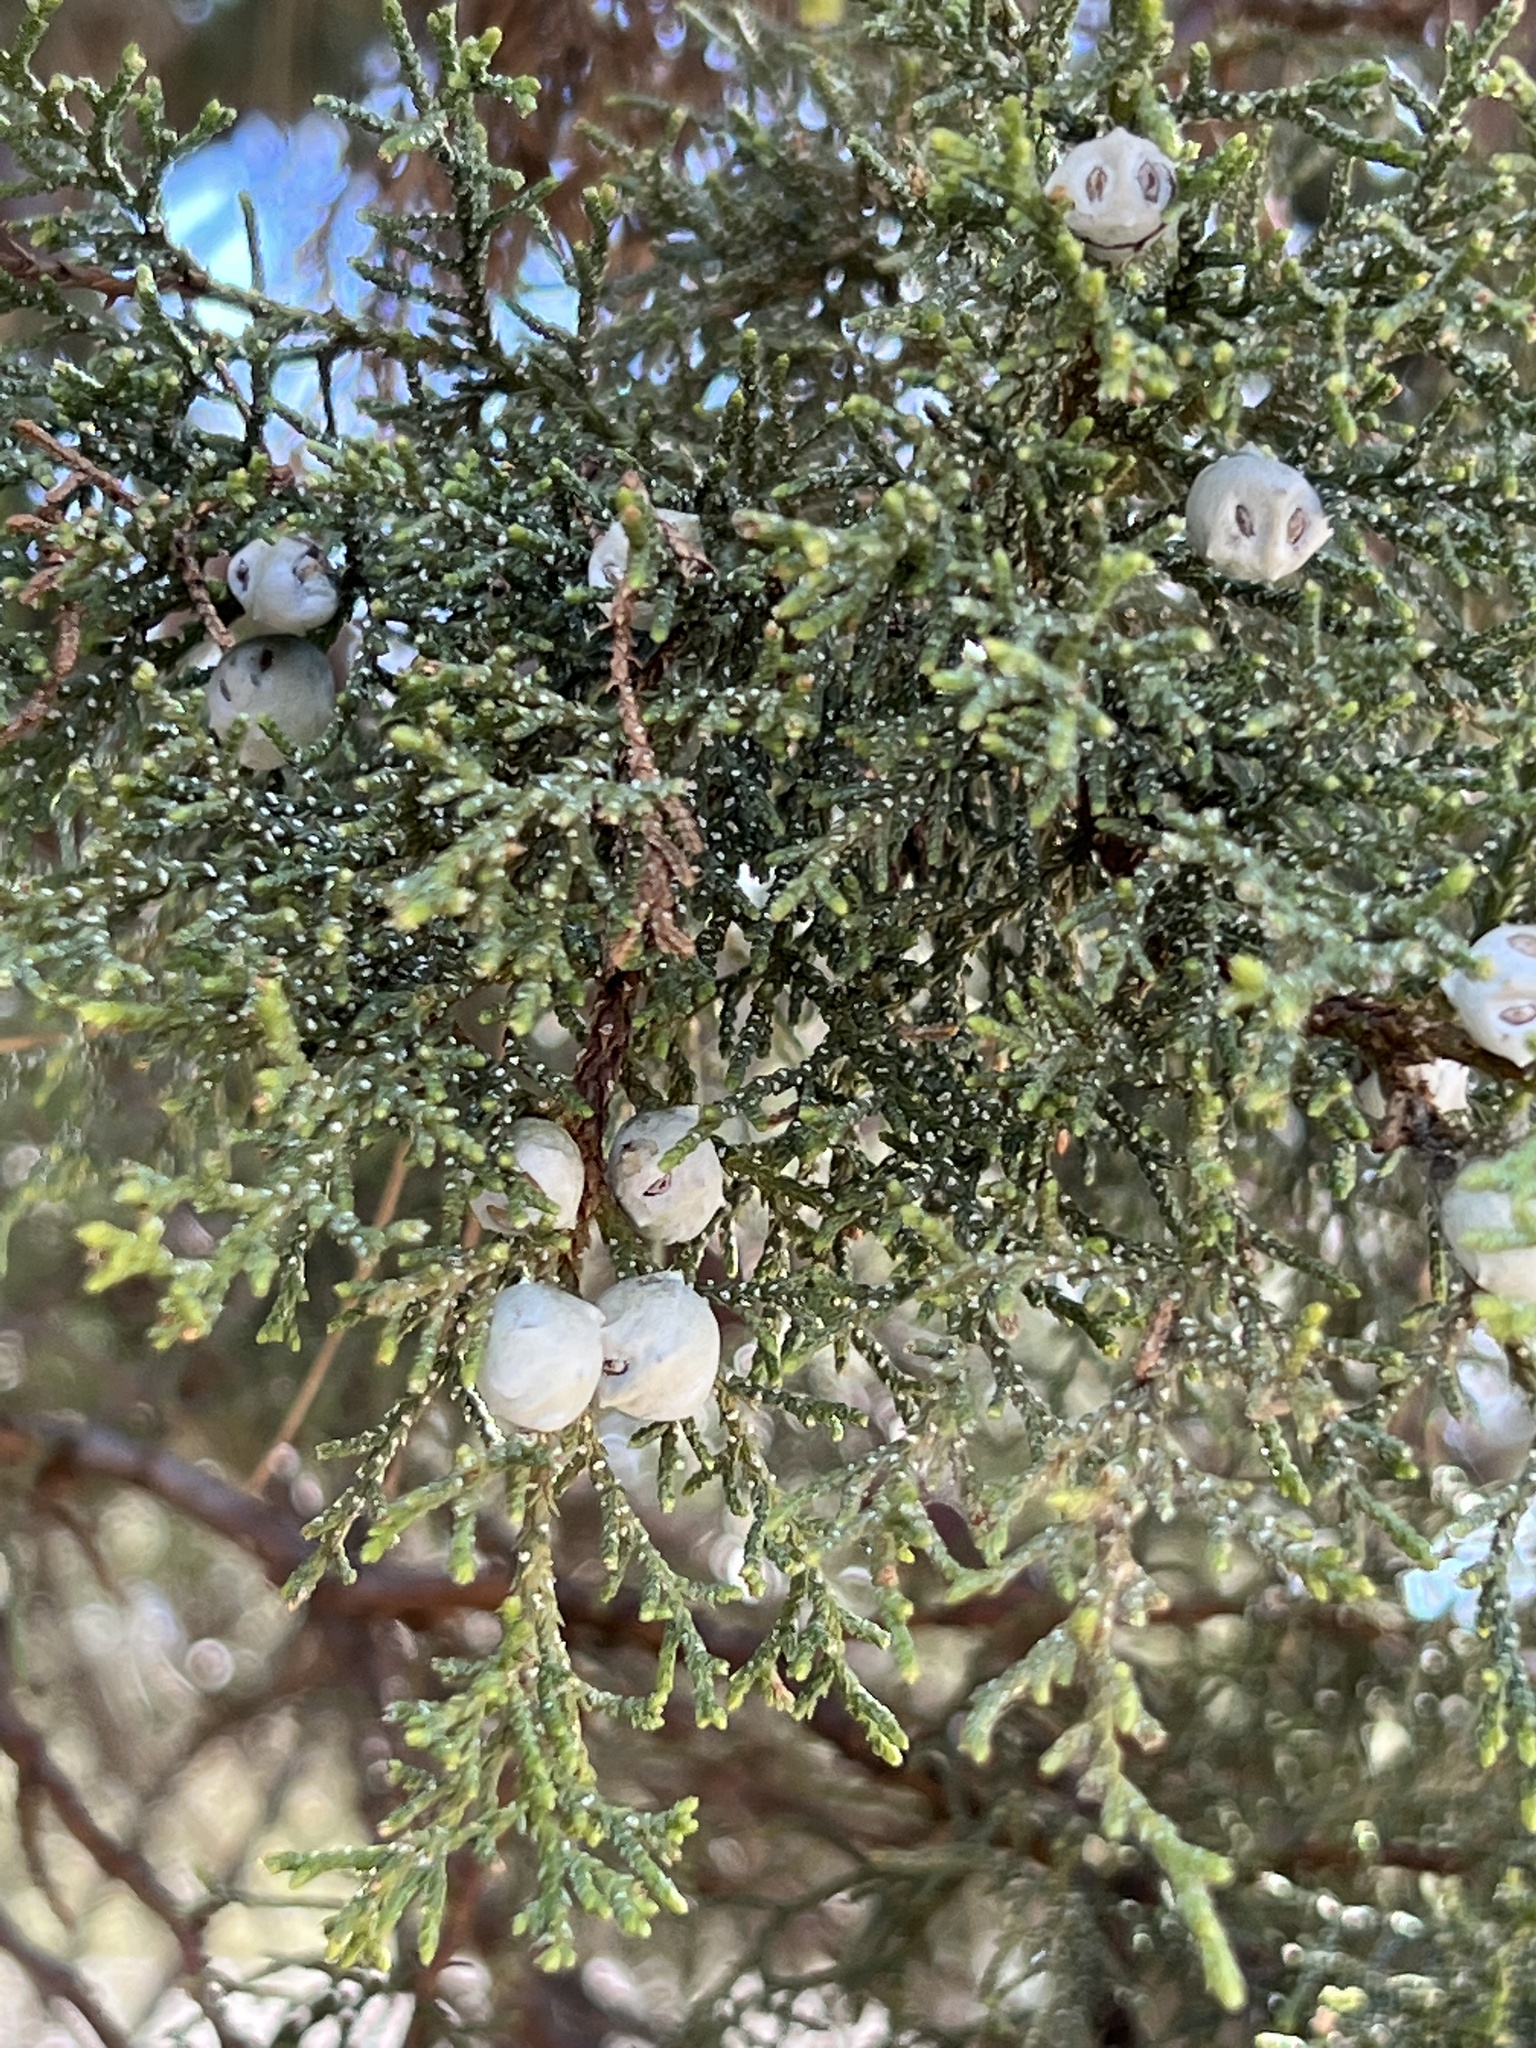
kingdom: Plantae
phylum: Tracheophyta
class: Pinopsida
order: Pinales
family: Cupressaceae
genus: Juniperus
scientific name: Juniperus deppeana
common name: Alligator juniper
